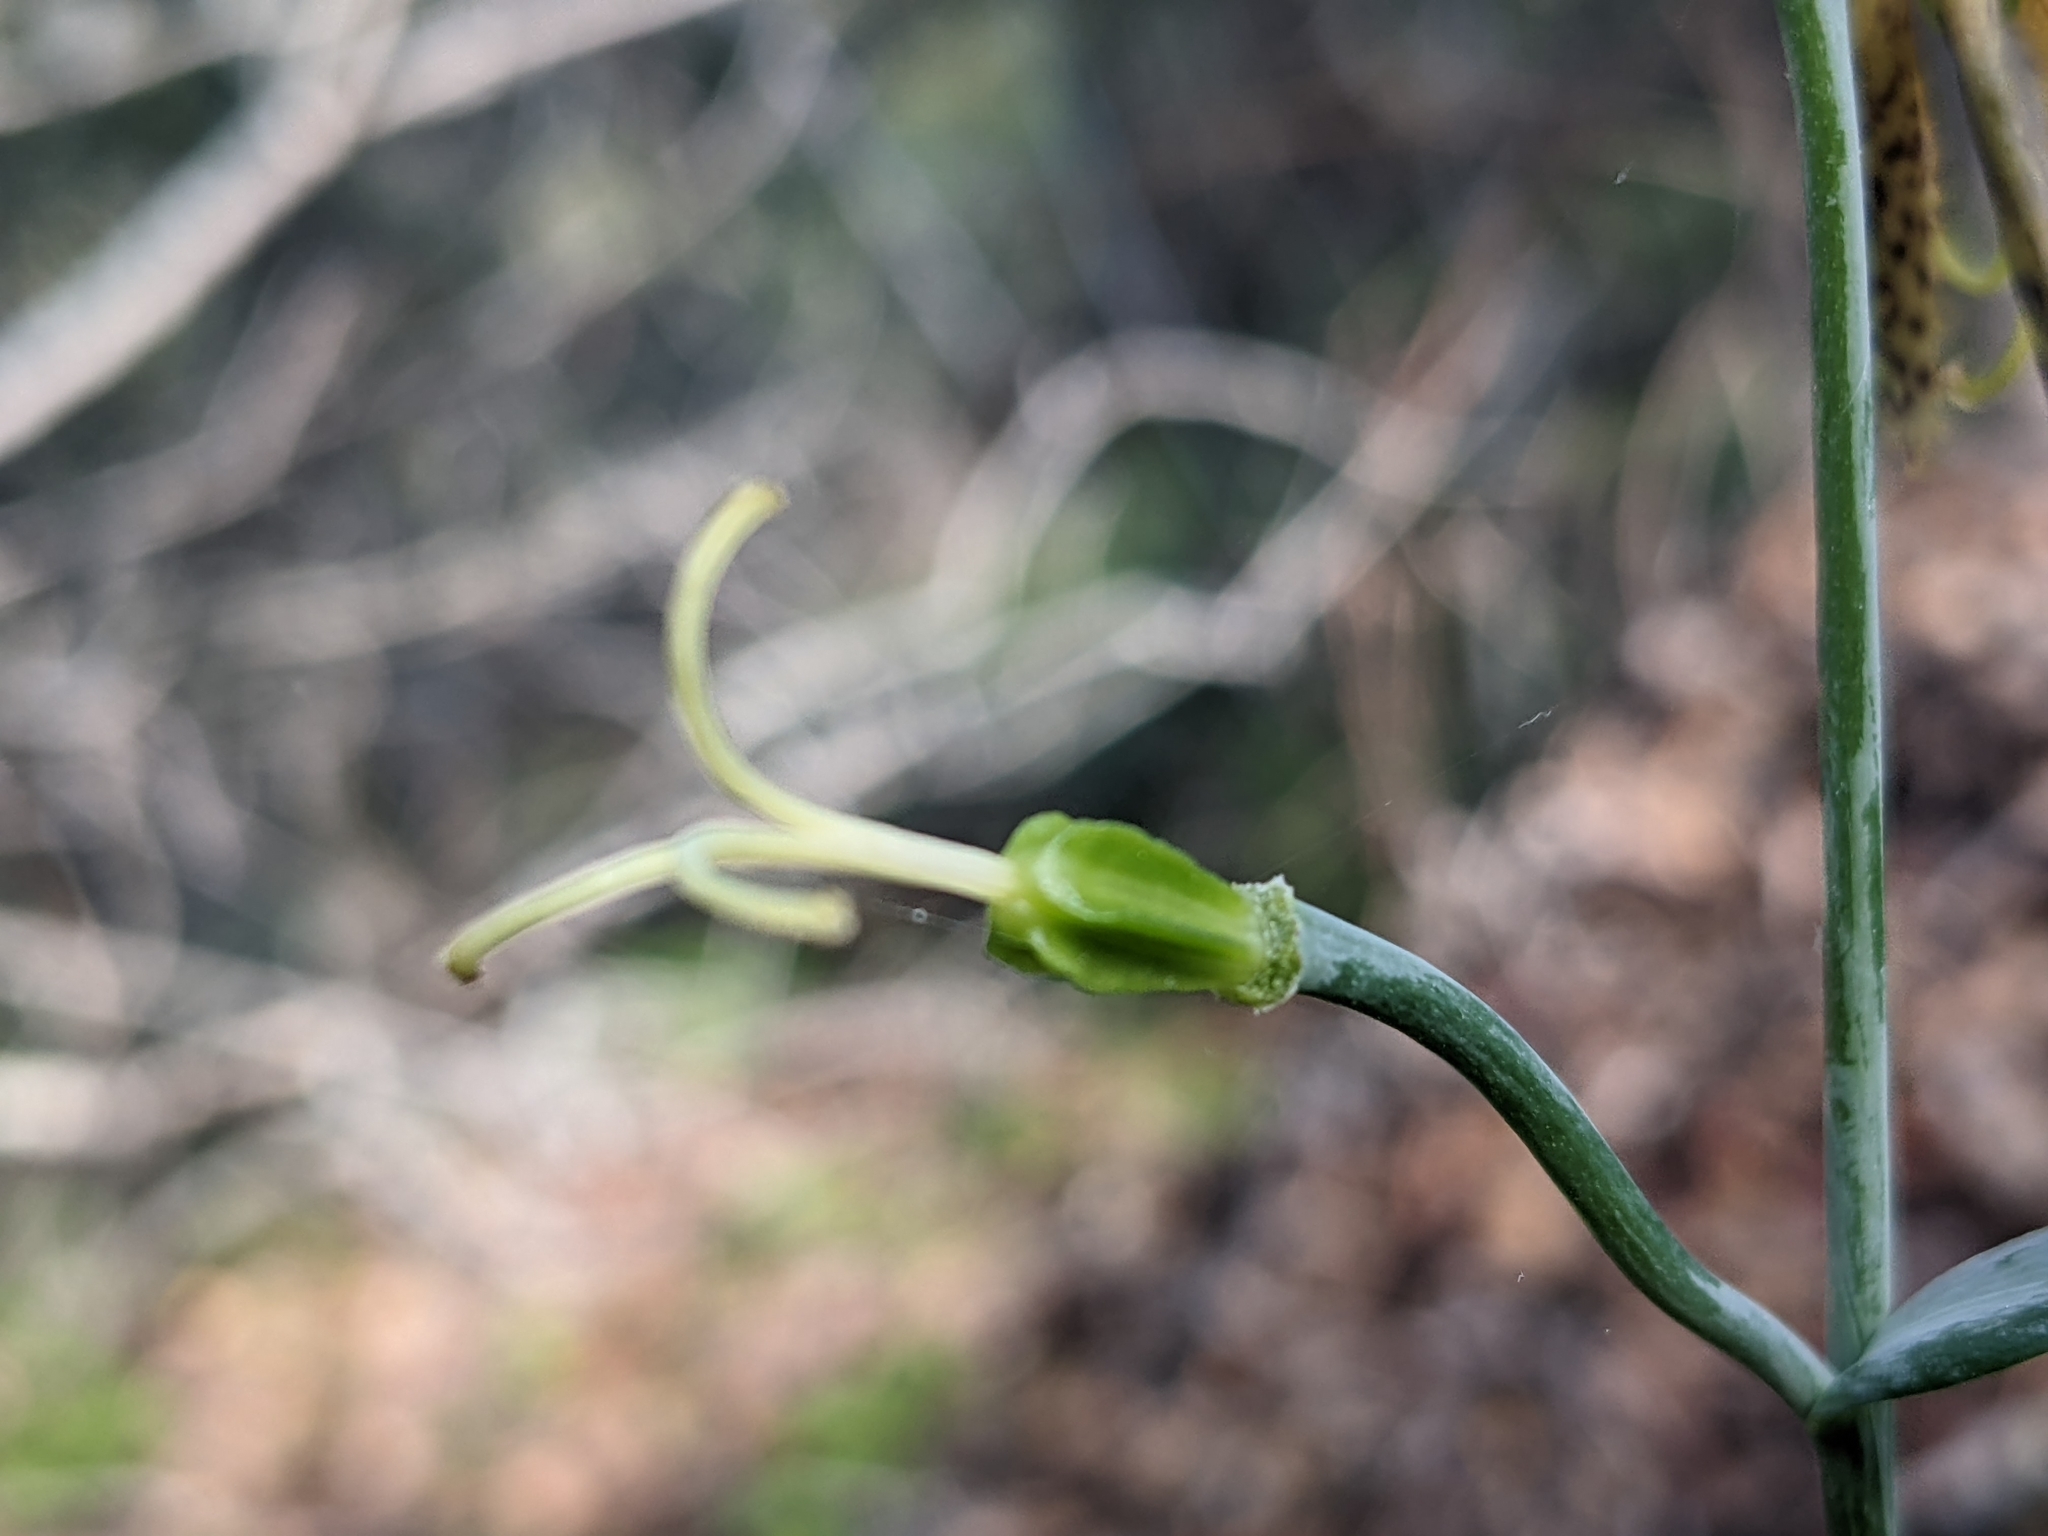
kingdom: Plantae
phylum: Tracheophyta
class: Liliopsida
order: Liliales
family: Liliaceae
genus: Fritillaria
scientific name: Fritillaria affinis
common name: Ojai fritillary
